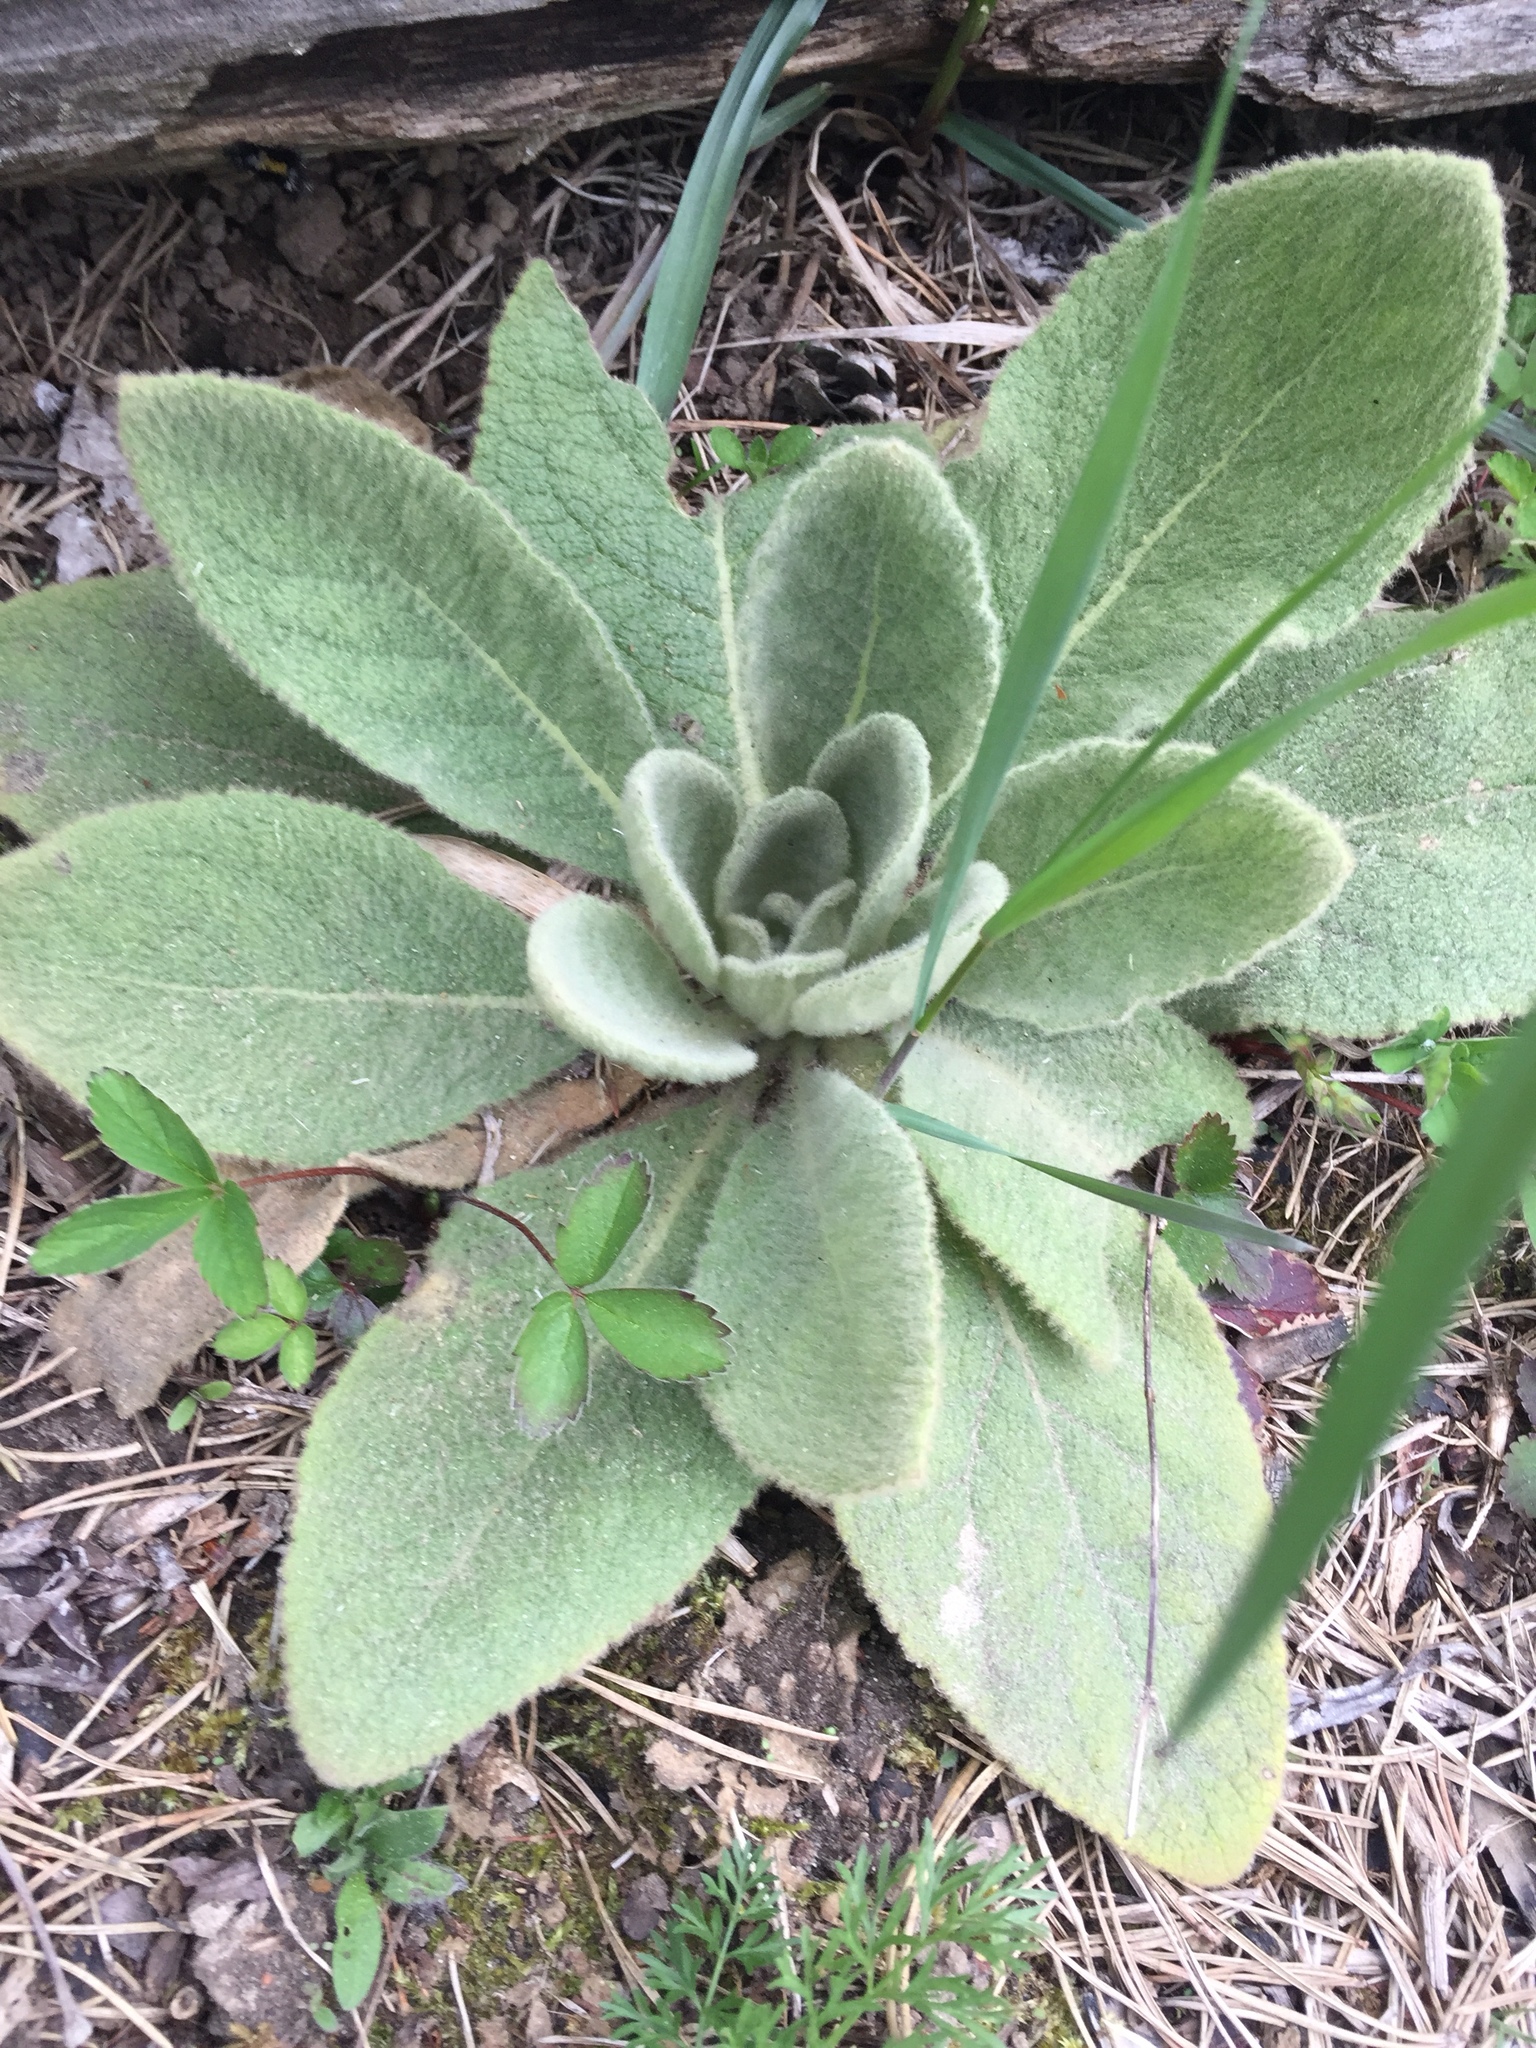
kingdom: Plantae
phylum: Tracheophyta
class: Magnoliopsida
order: Lamiales
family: Scrophulariaceae
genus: Verbascum
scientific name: Verbascum thapsus
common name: Common mullein
